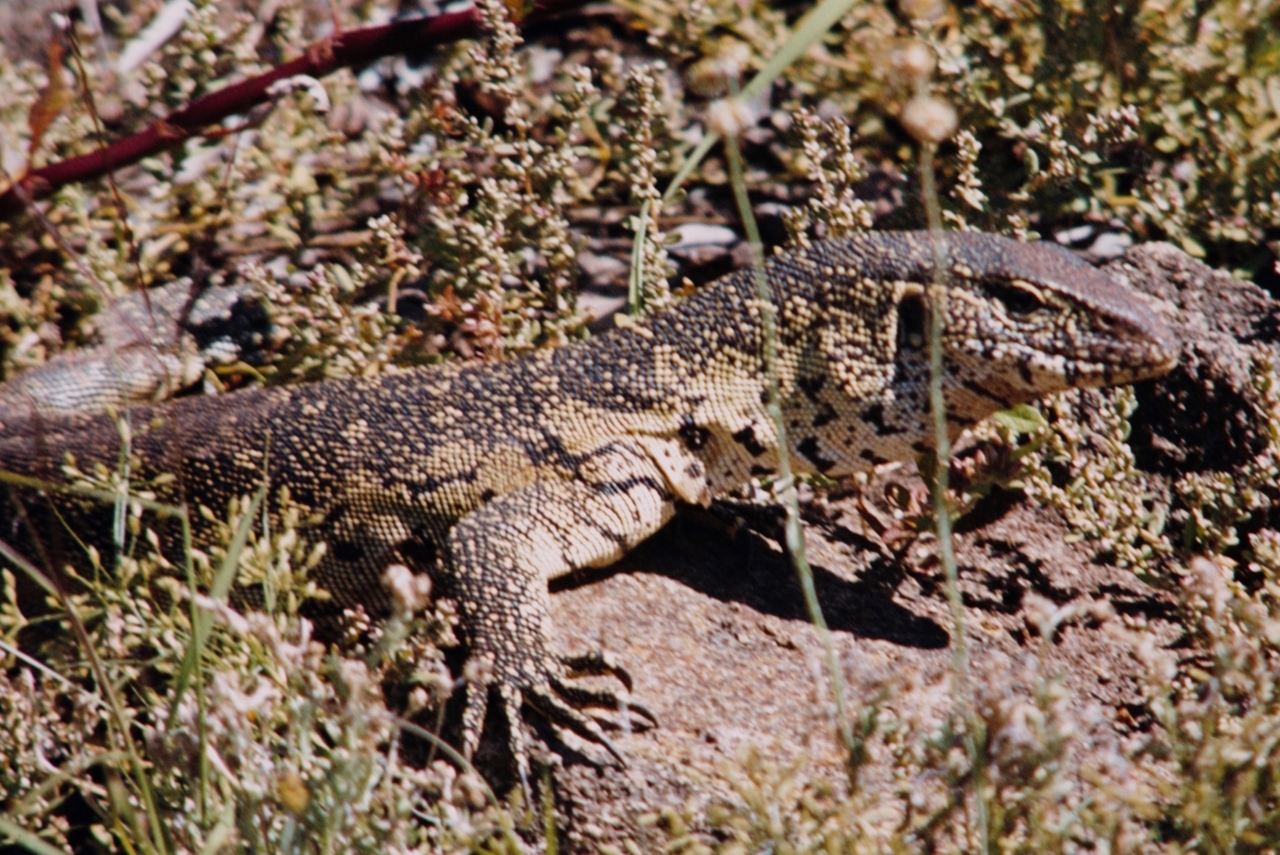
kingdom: Animalia
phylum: Chordata
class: Squamata
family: Varanidae
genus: Varanus
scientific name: Varanus niloticus
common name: Nile monitor
